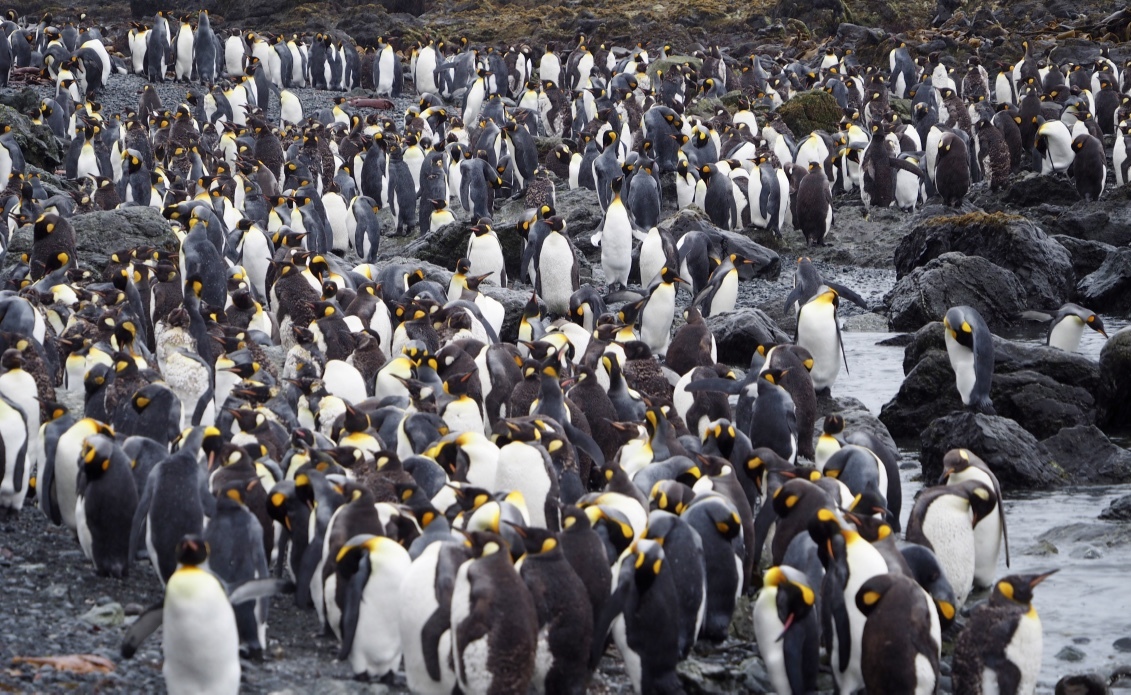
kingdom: Animalia
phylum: Chordata
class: Aves
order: Sphenisciformes
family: Spheniscidae
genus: Aptenodytes
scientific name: Aptenodytes patagonicus
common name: King penguin
